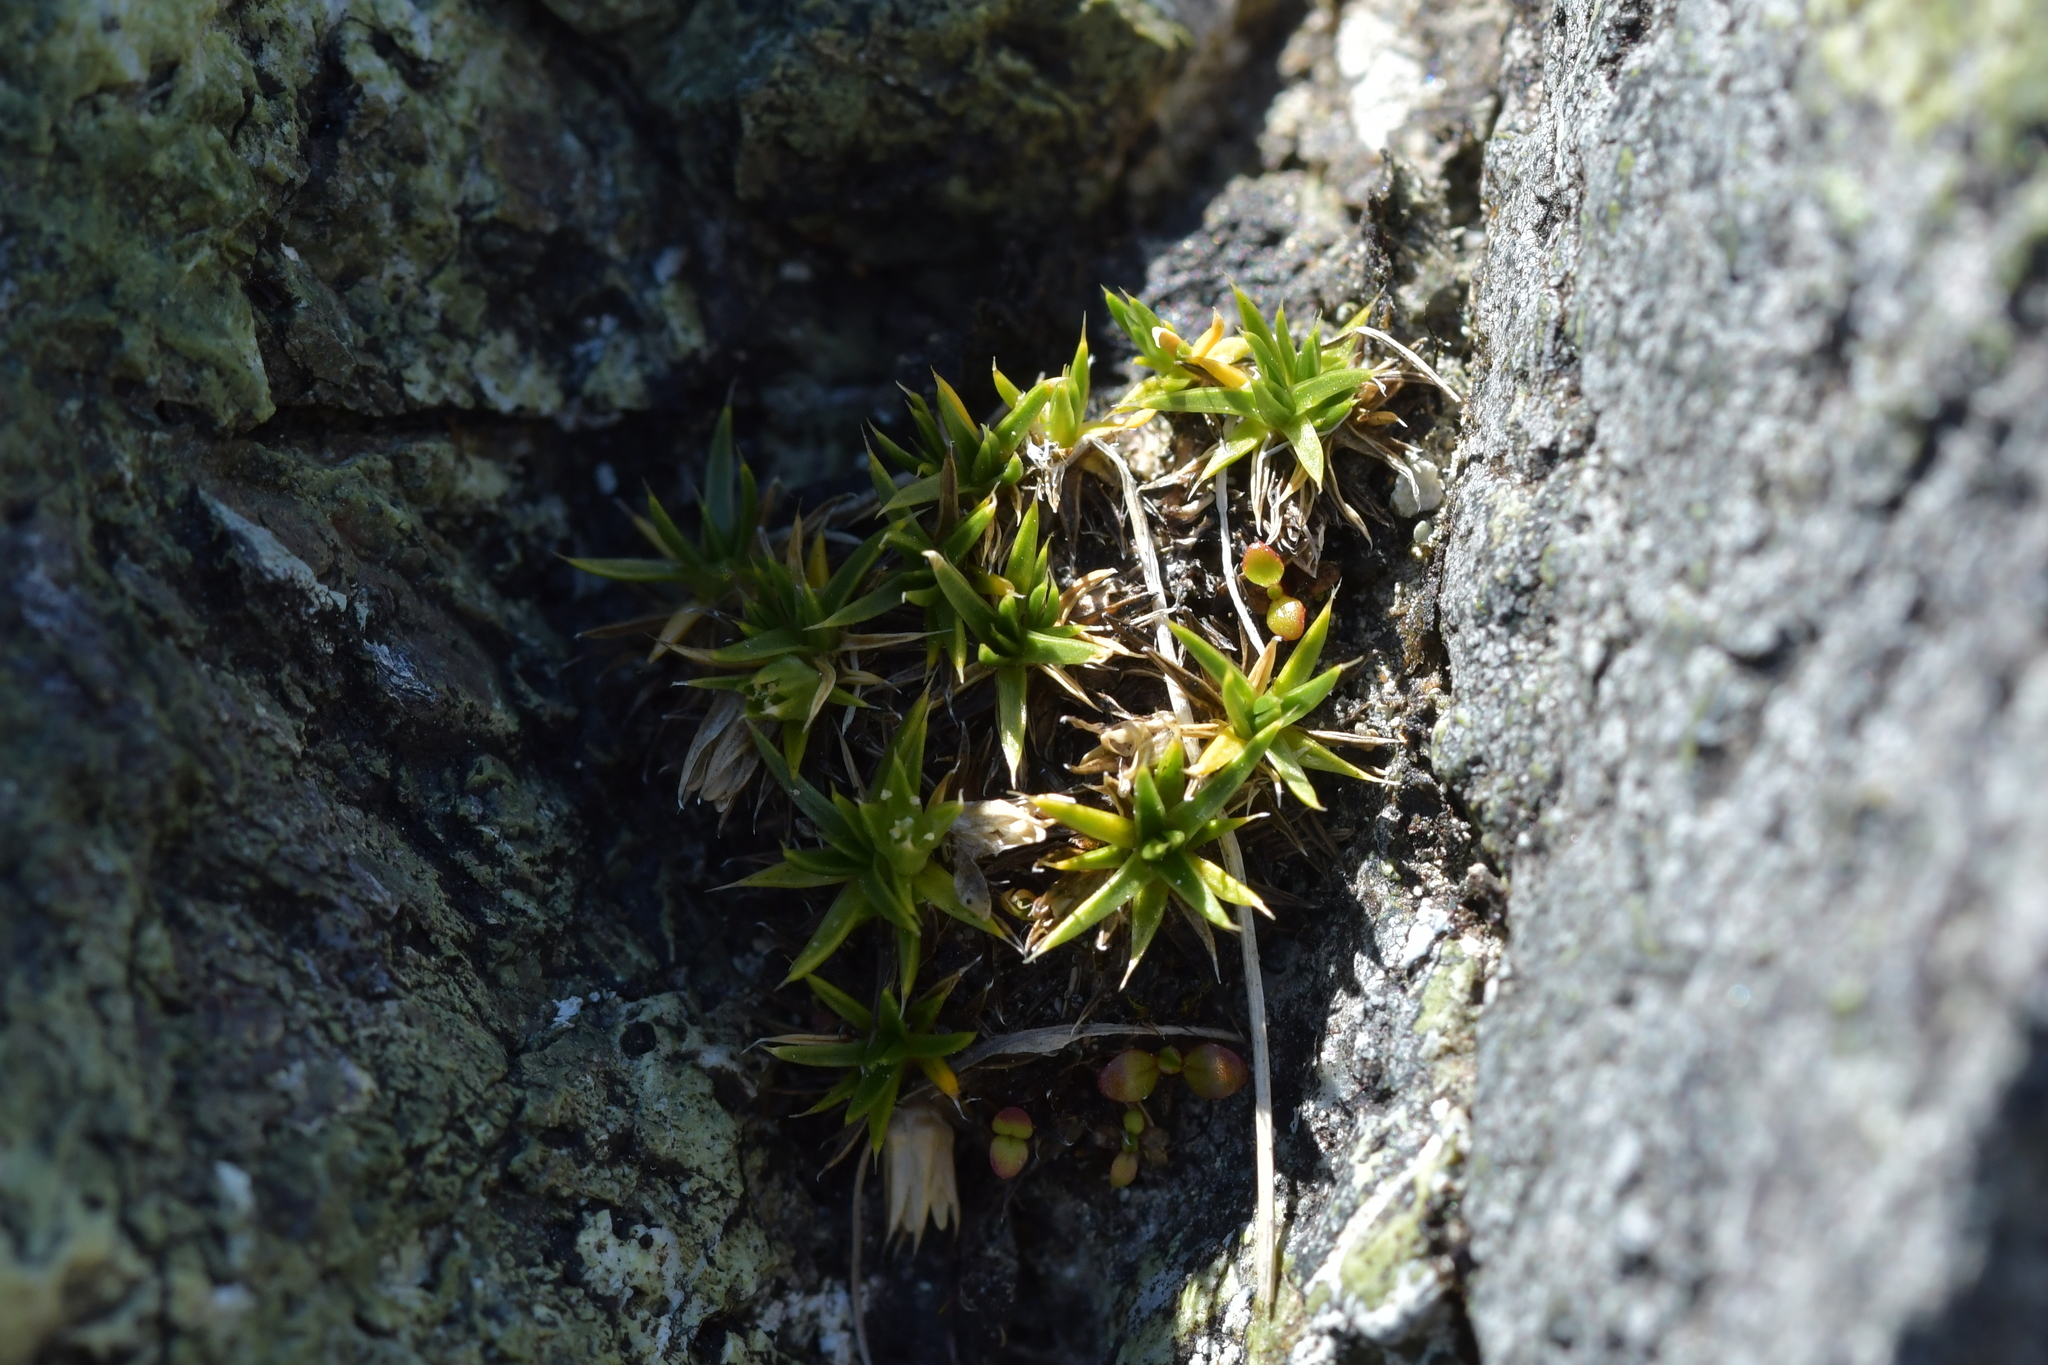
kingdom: Plantae
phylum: Tracheophyta
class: Magnoliopsida
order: Caryophyllales
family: Caryophyllaceae
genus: Colobanthus
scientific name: Colobanthus buchananii
